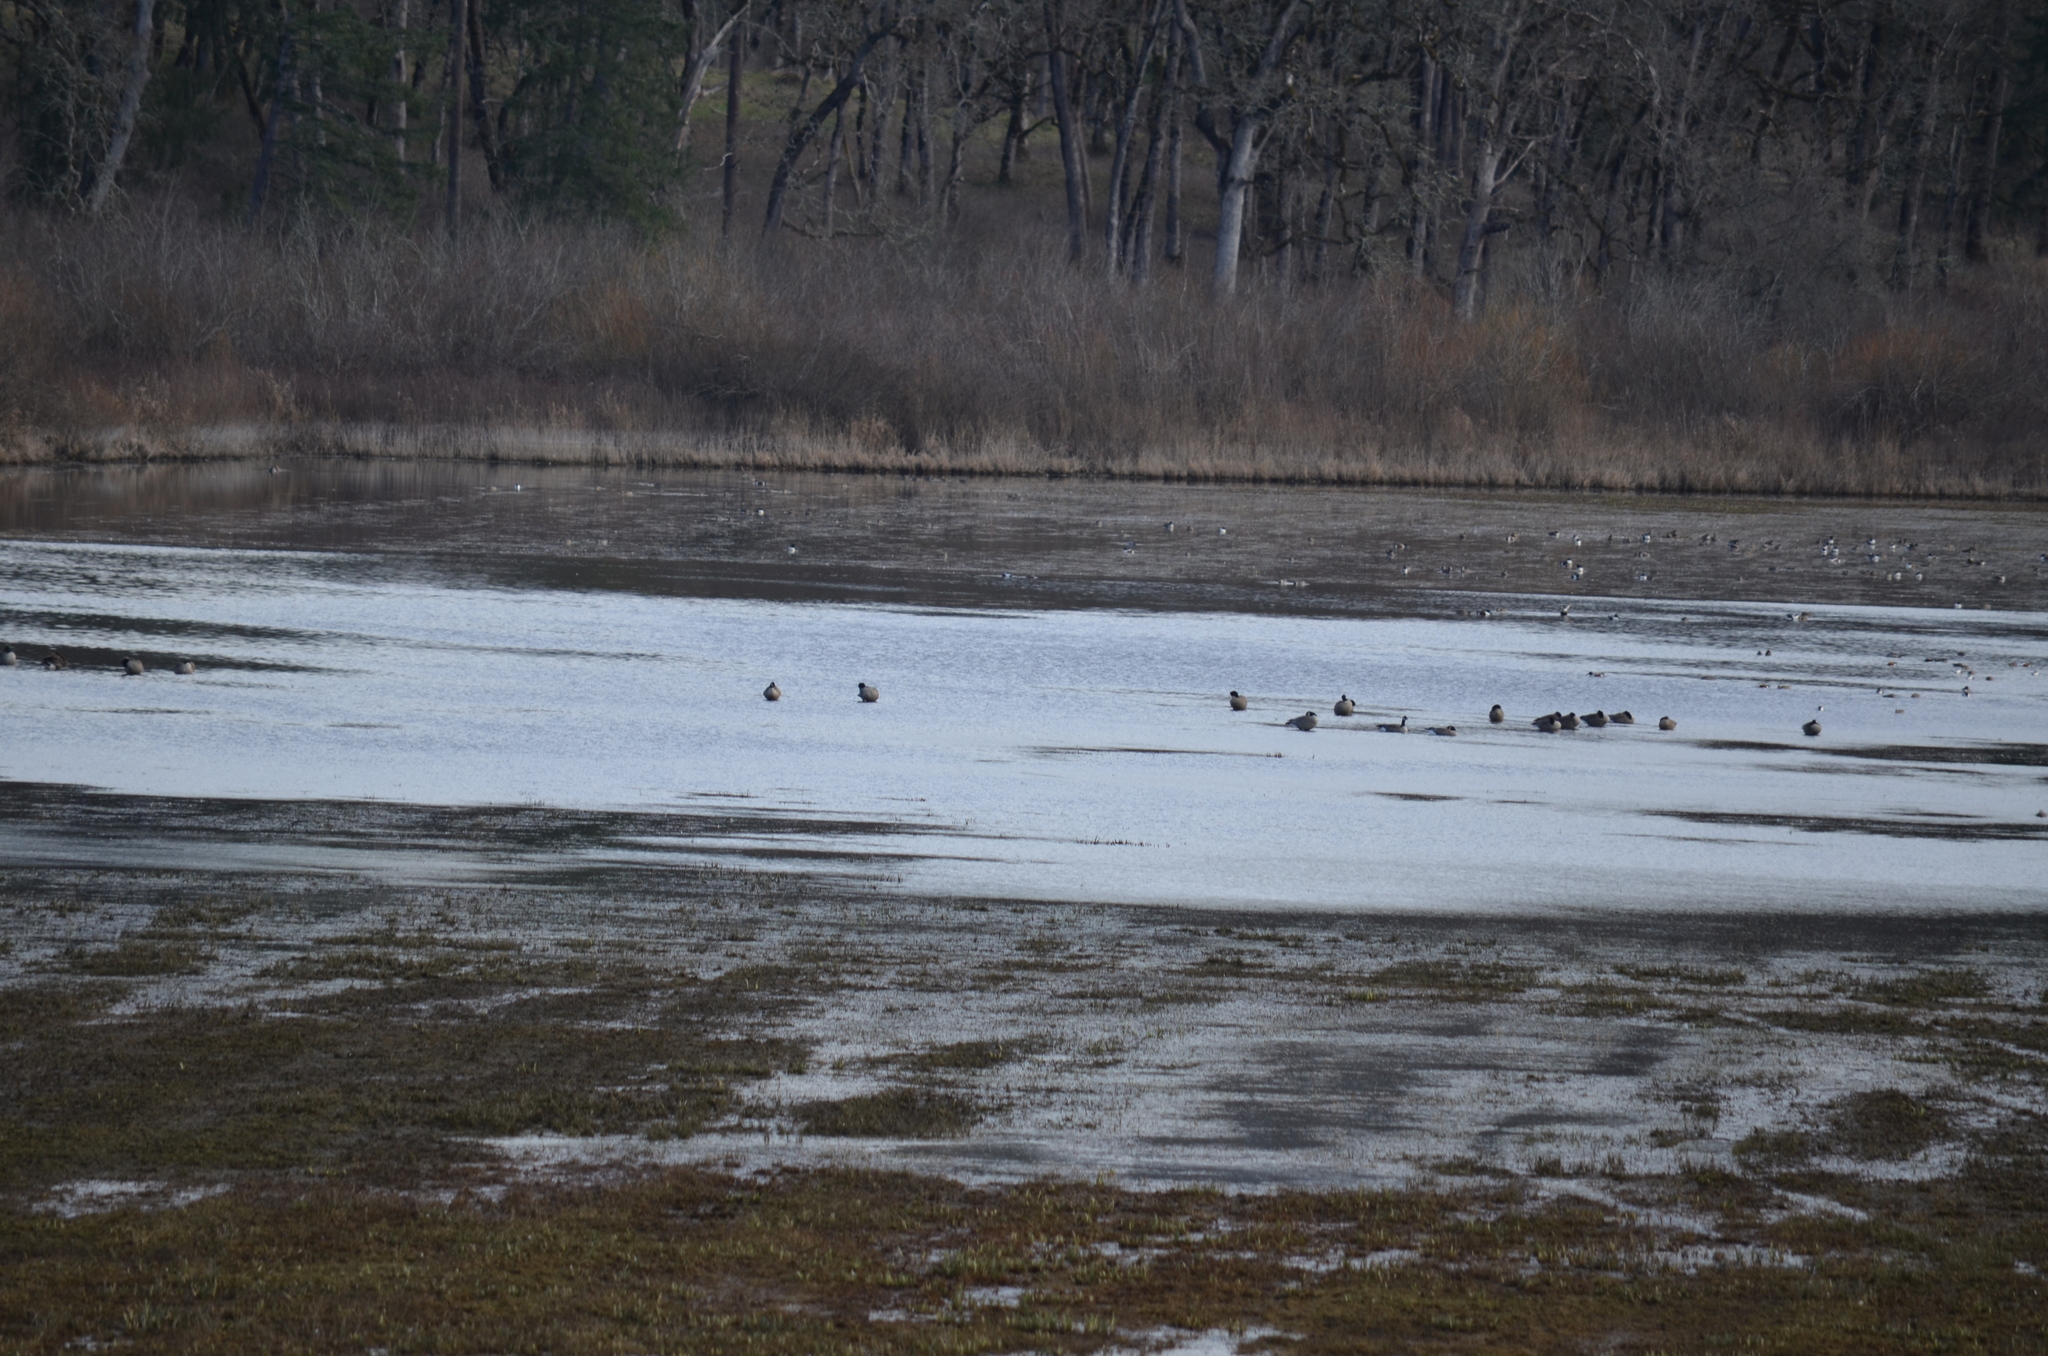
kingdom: Animalia
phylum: Chordata
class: Aves
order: Anseriformes
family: Anatidae
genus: Branta
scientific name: Branta canadensis
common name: Canada goose
